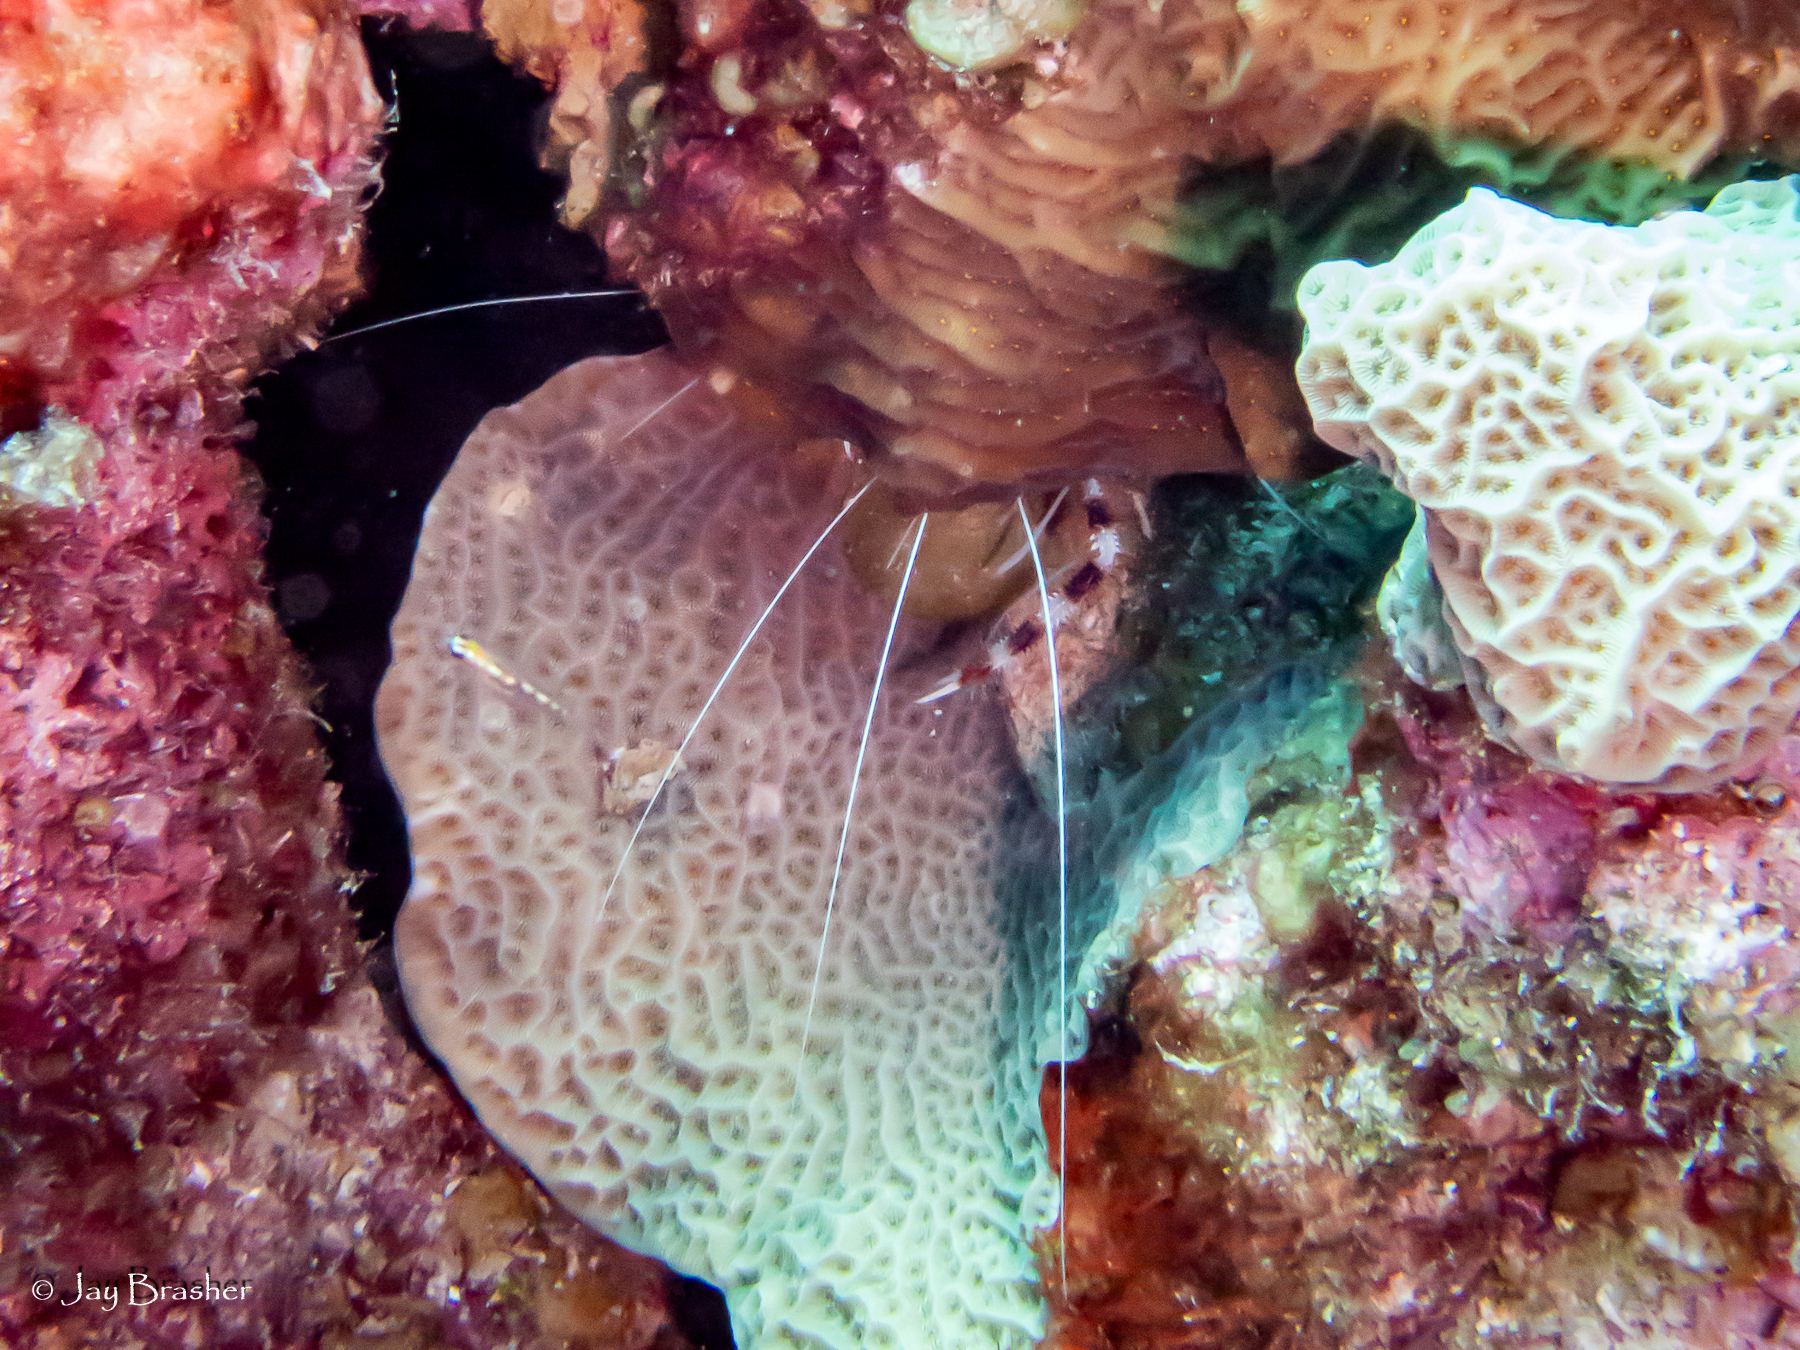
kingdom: Animalia
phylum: Arthropoda
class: Malacostraca
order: Decapoda
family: Stenopodidae
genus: Stenopus
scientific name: Stenopus hispidus
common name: Banded coral shrimp
